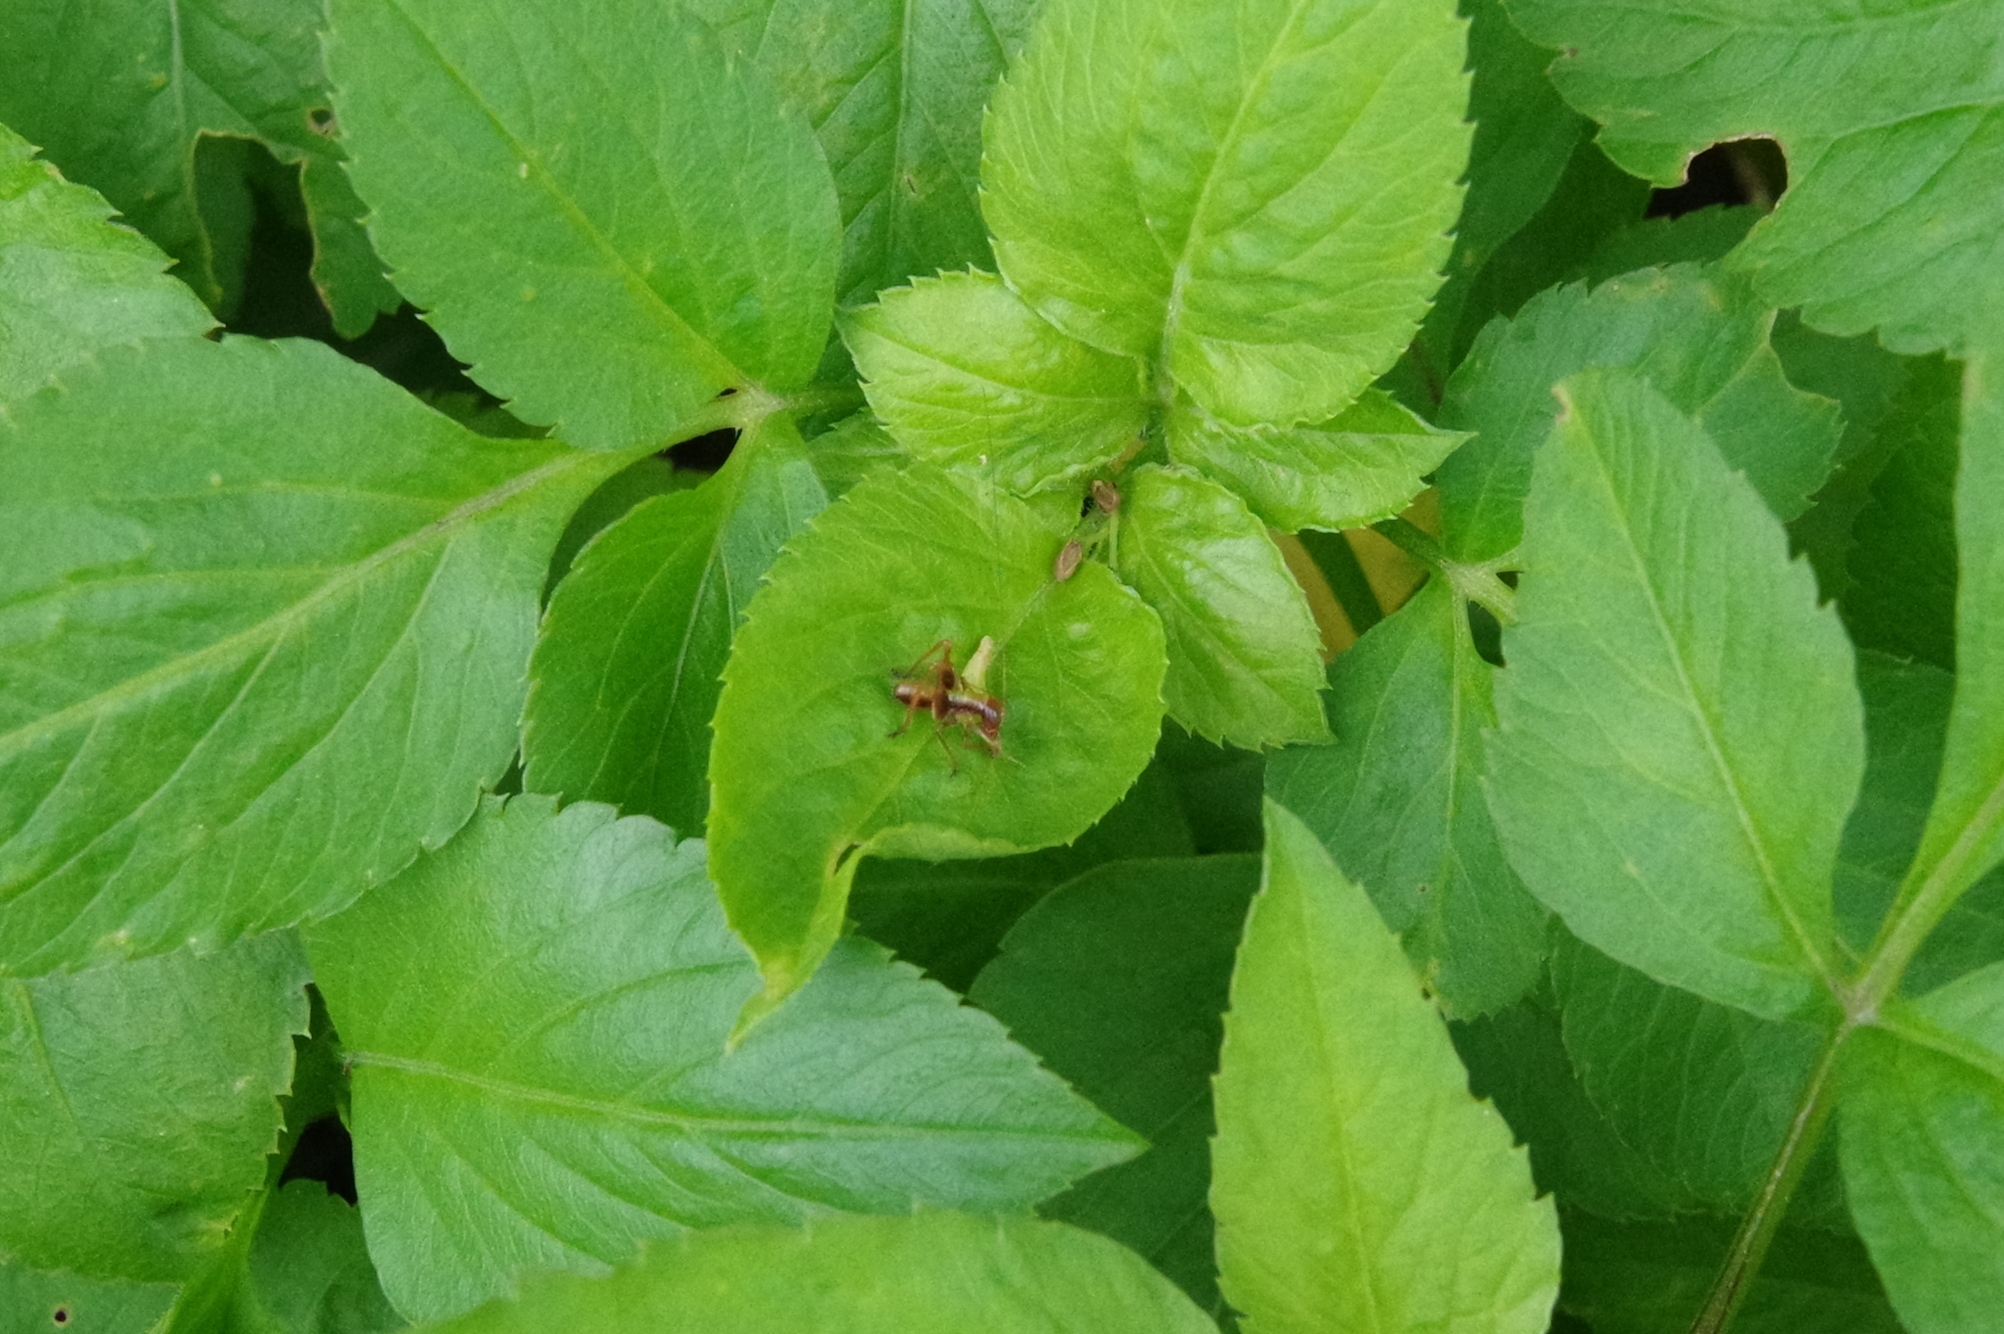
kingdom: Animalia
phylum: Arthropoda
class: Insecta
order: Orthoptera
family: Tettigoniidae
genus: Isopsera
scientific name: Isopsera denticulata
